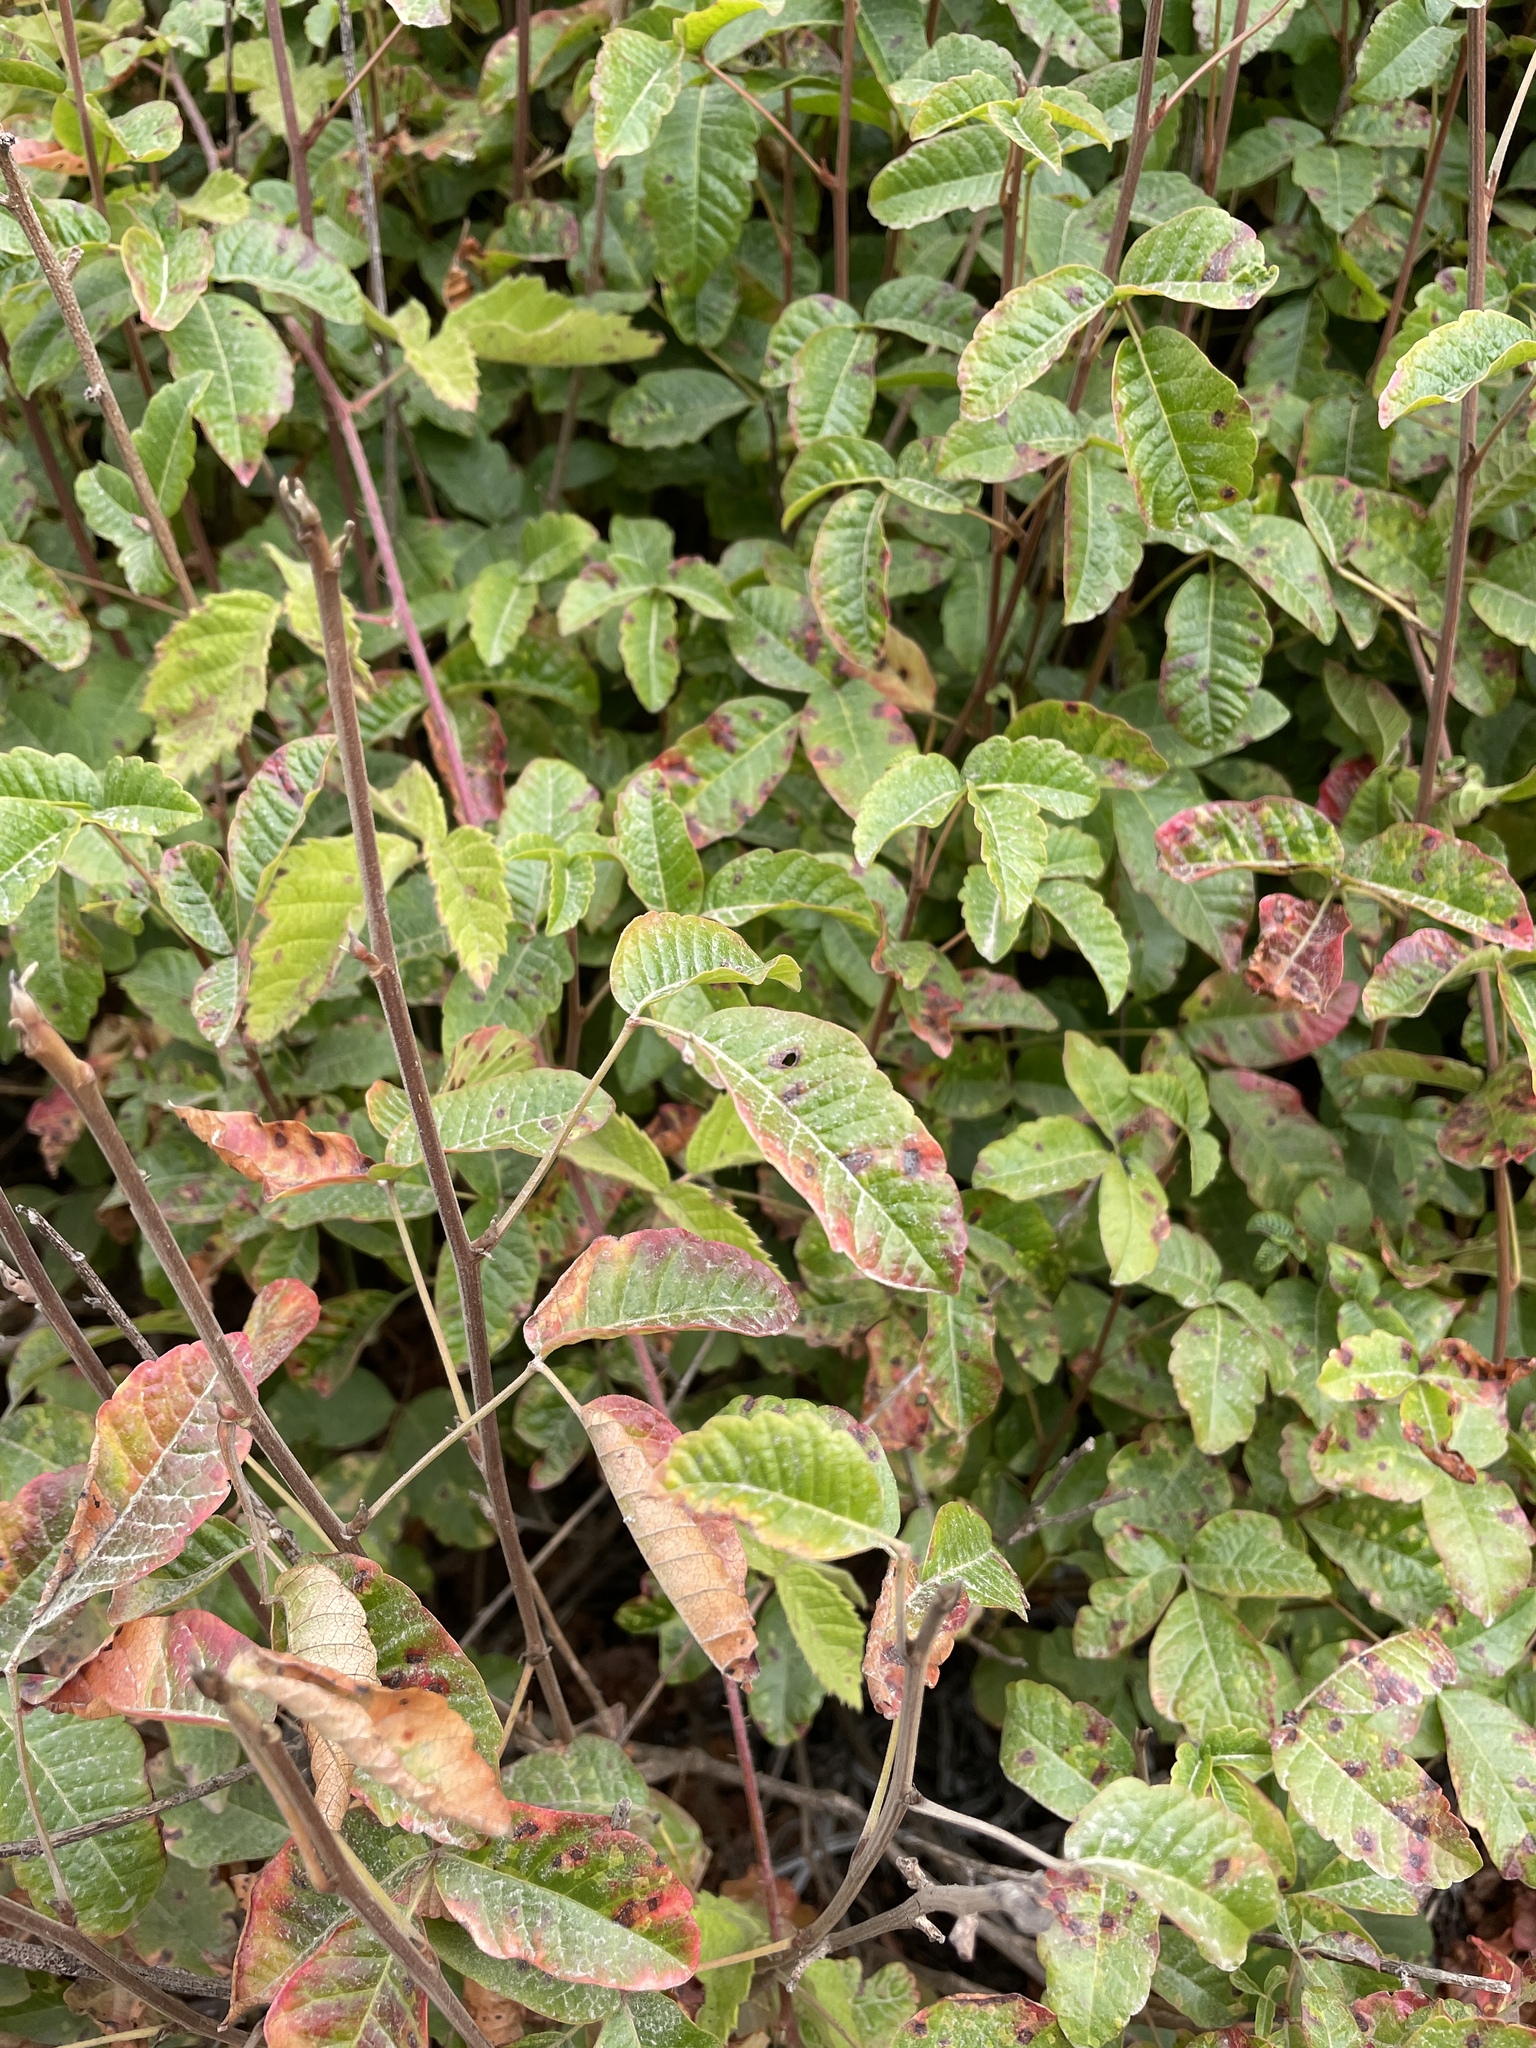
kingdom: Plantae
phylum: Tracheophyta
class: Magnoliopsida
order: Sapindales
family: Anacardiaceae
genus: Toxicodendron
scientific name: Toxicodendron diversilobum
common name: Pacific poison-oak
